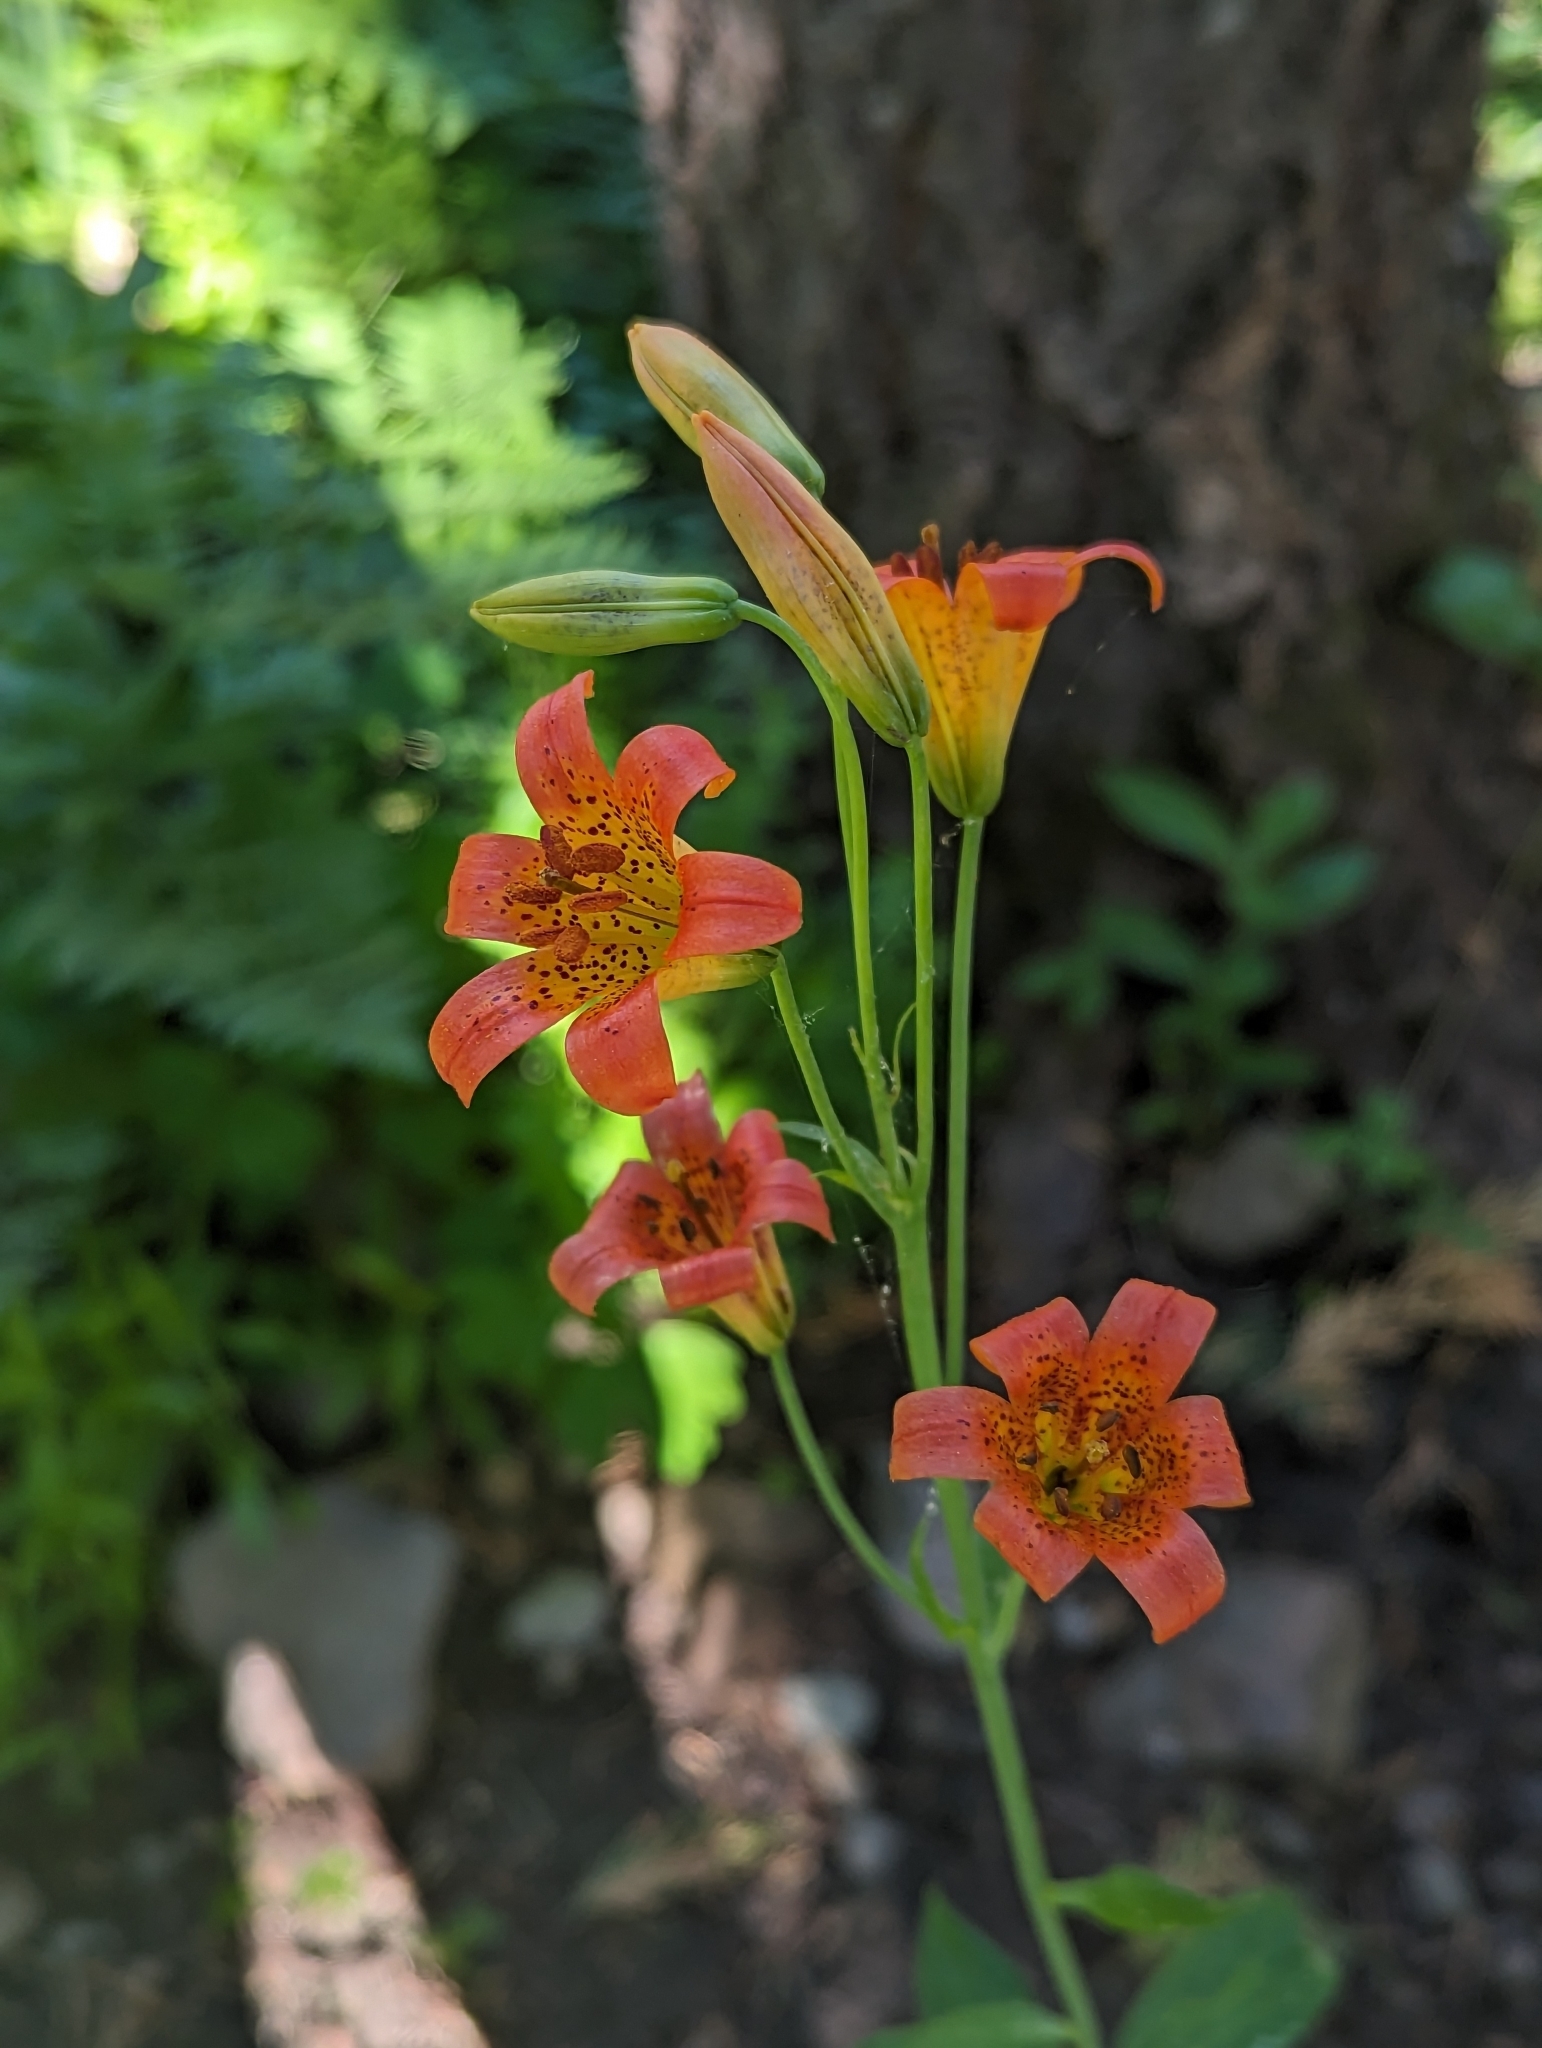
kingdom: Plantae
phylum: Tracheophyta
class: Liliopsida
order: Liliales
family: Liliaceae
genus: Lilium
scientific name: Lilium parvum
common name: Alpine lily
